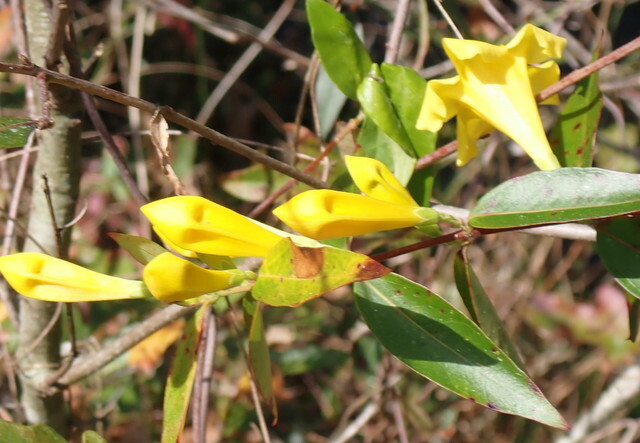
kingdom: Plantae
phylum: Tracheophyta
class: Magnoliopsida
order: Gentianales
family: Gelsemiaceae
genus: Gelsemium
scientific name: Gelsemium sempervirens
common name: Carolina-jasmine
